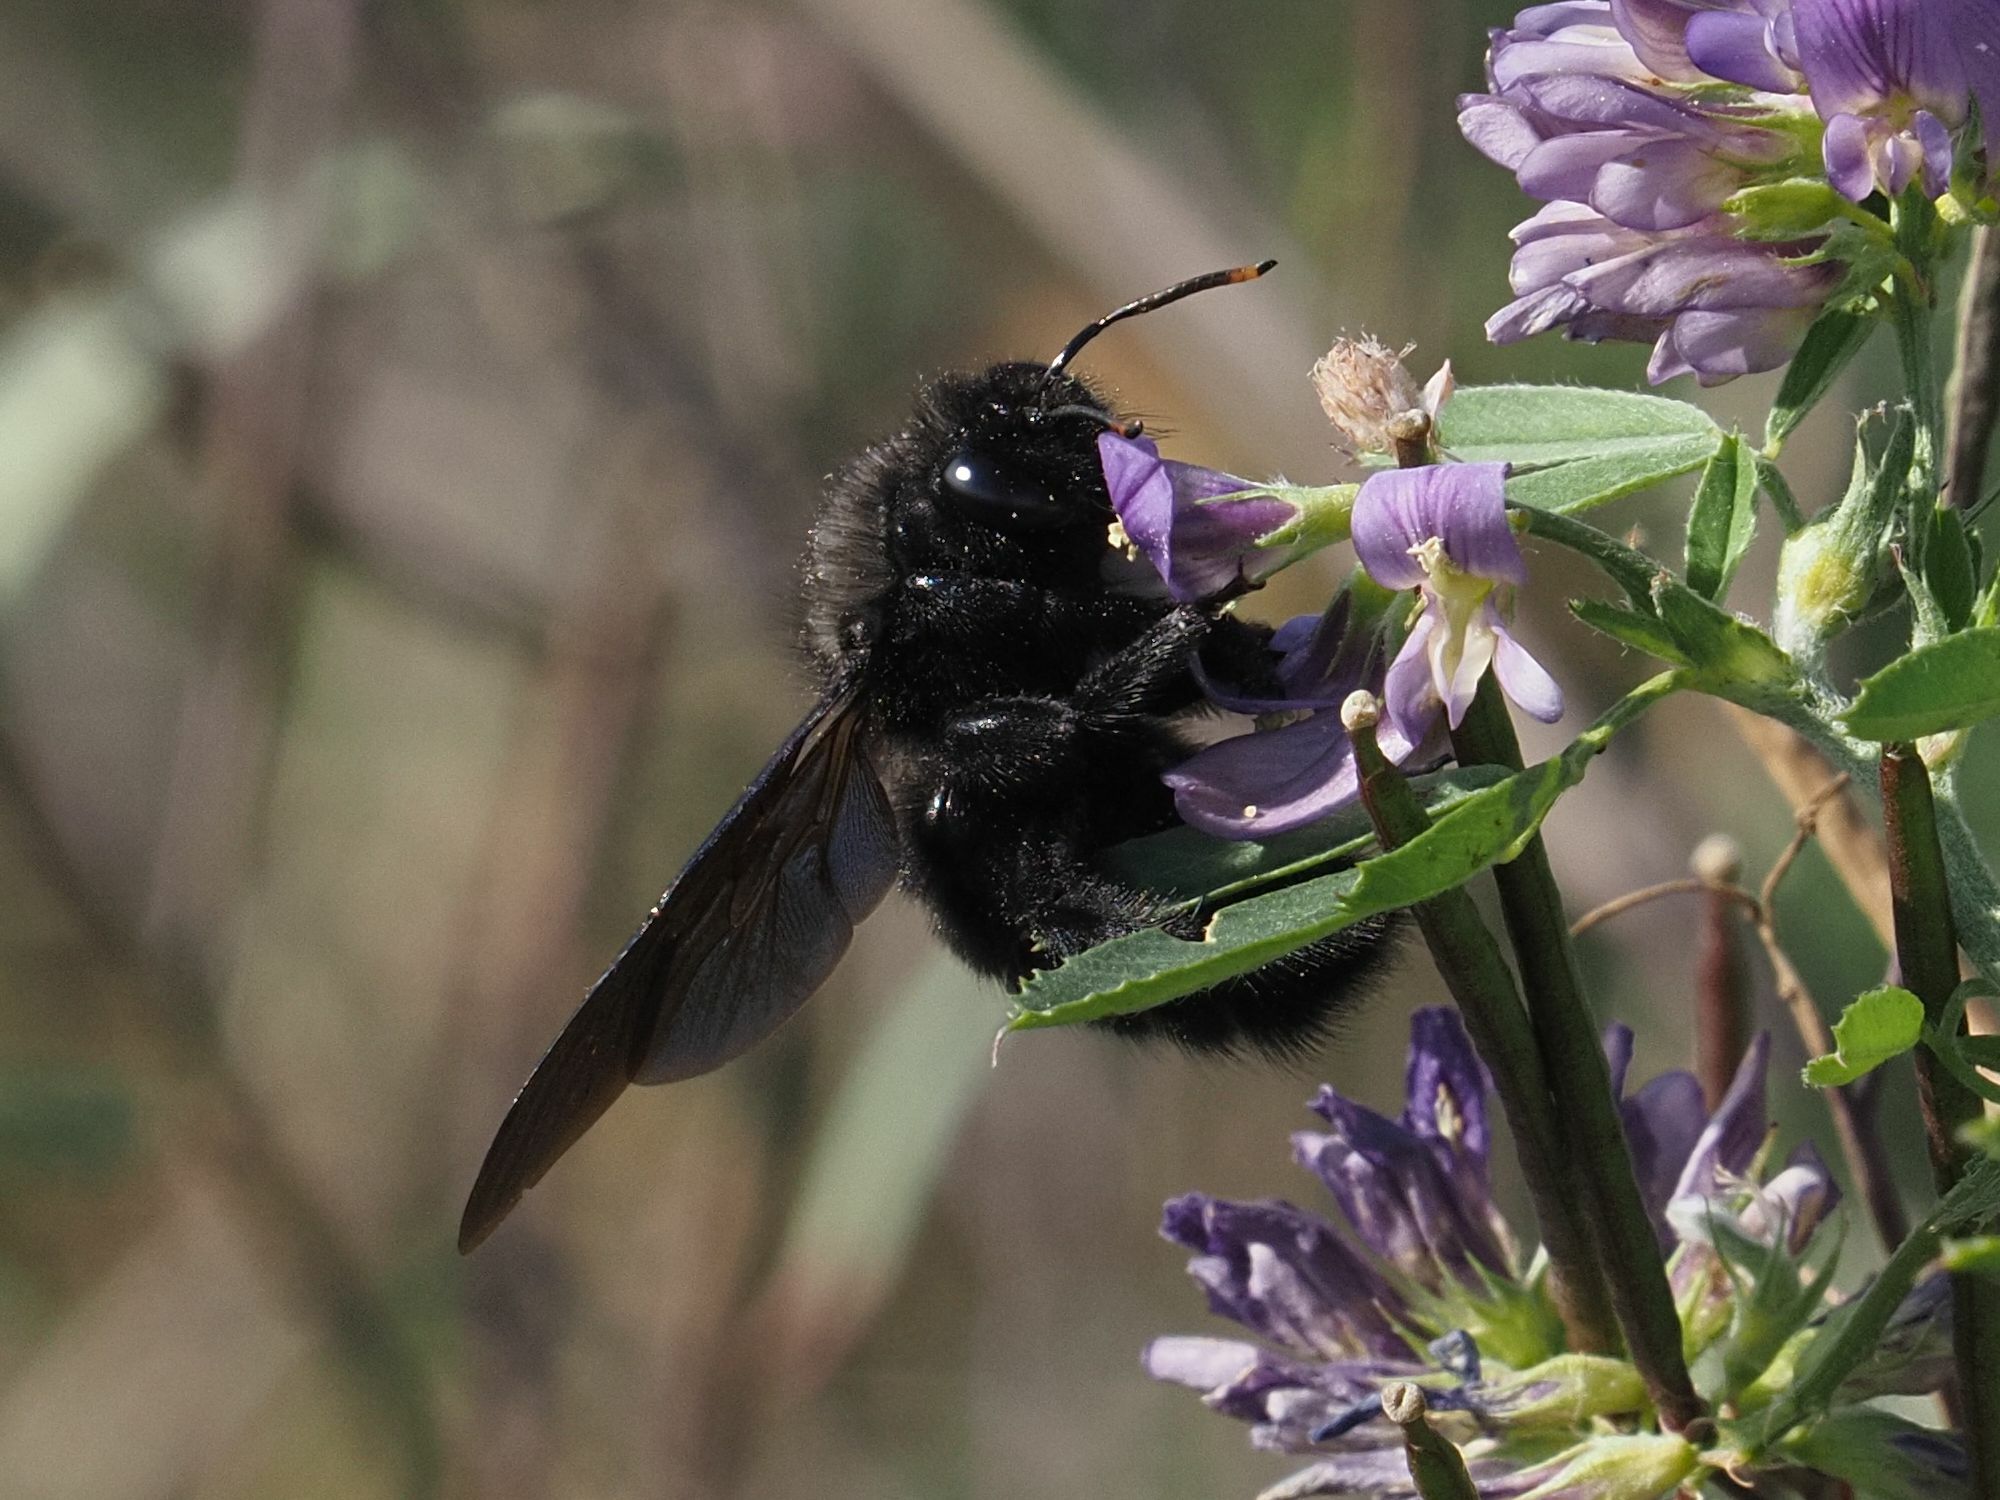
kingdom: Animalia
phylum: Arthropoda
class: Insecta
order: Hymenoptera
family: Apidae
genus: Xylocopa
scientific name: Xylocopa violacea
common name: Violet carpenter bee
